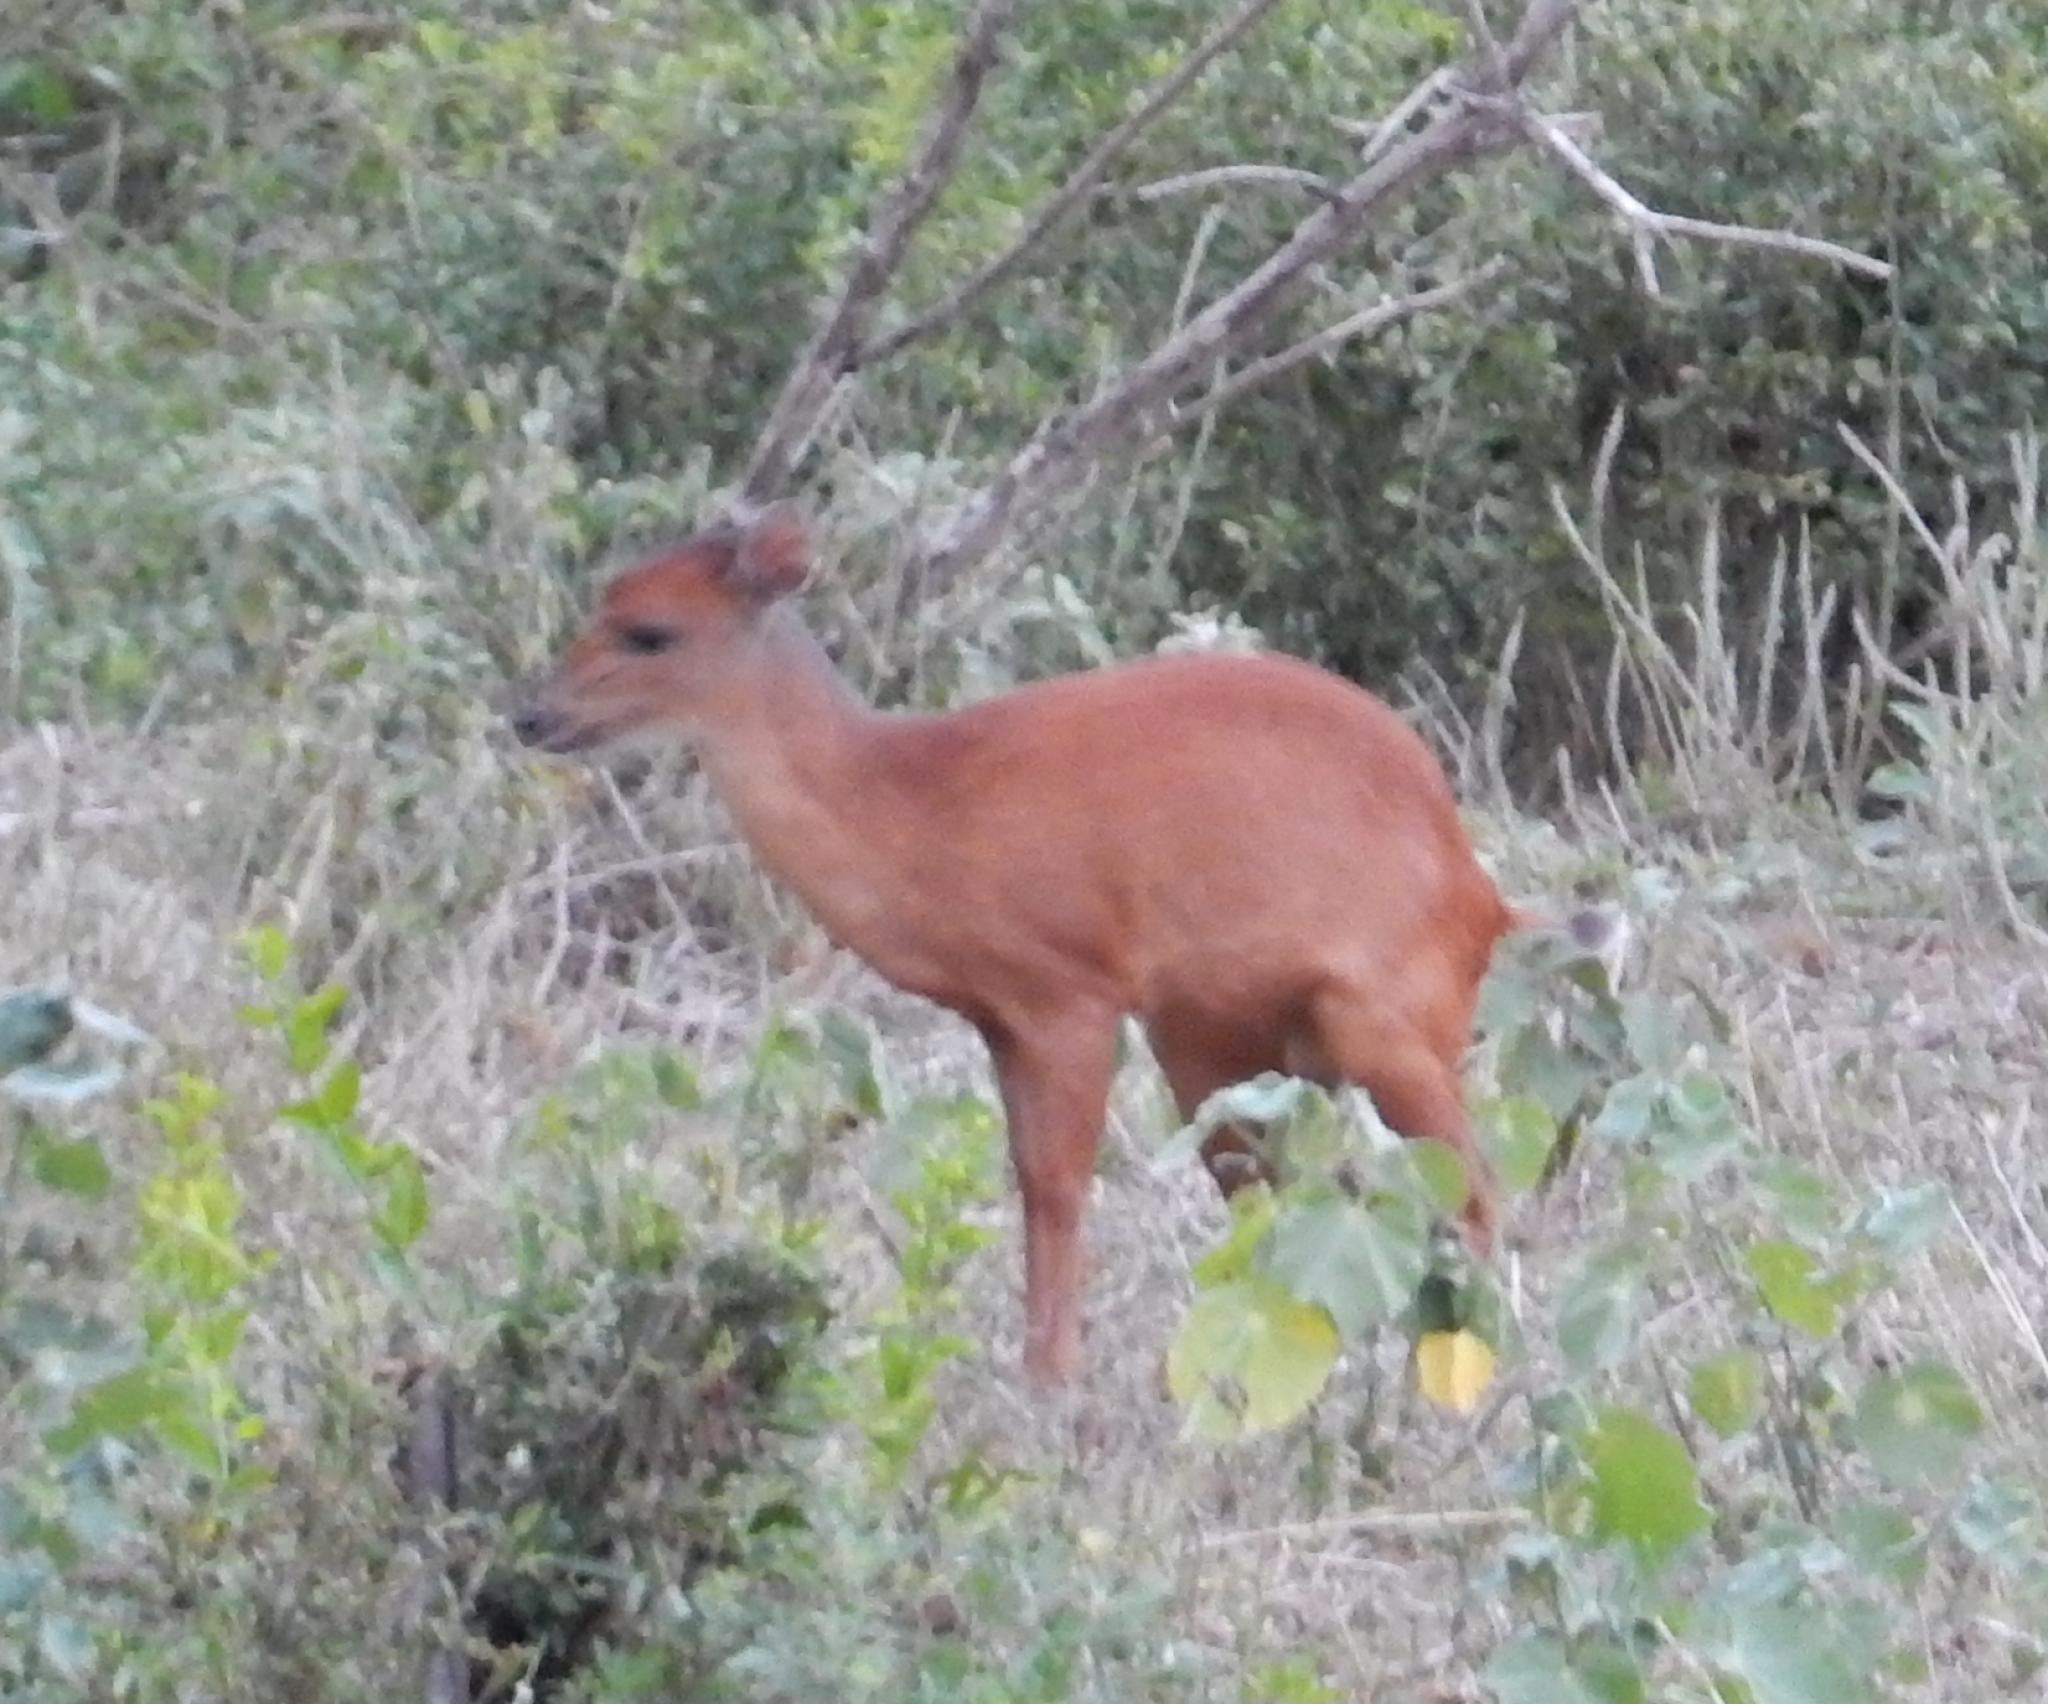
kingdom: Animalia
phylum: Chordata
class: Mammalia
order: Artiodactyla
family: Bovidae
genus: Cephalophus
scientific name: Cephalophus natalensis
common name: Red duiker
